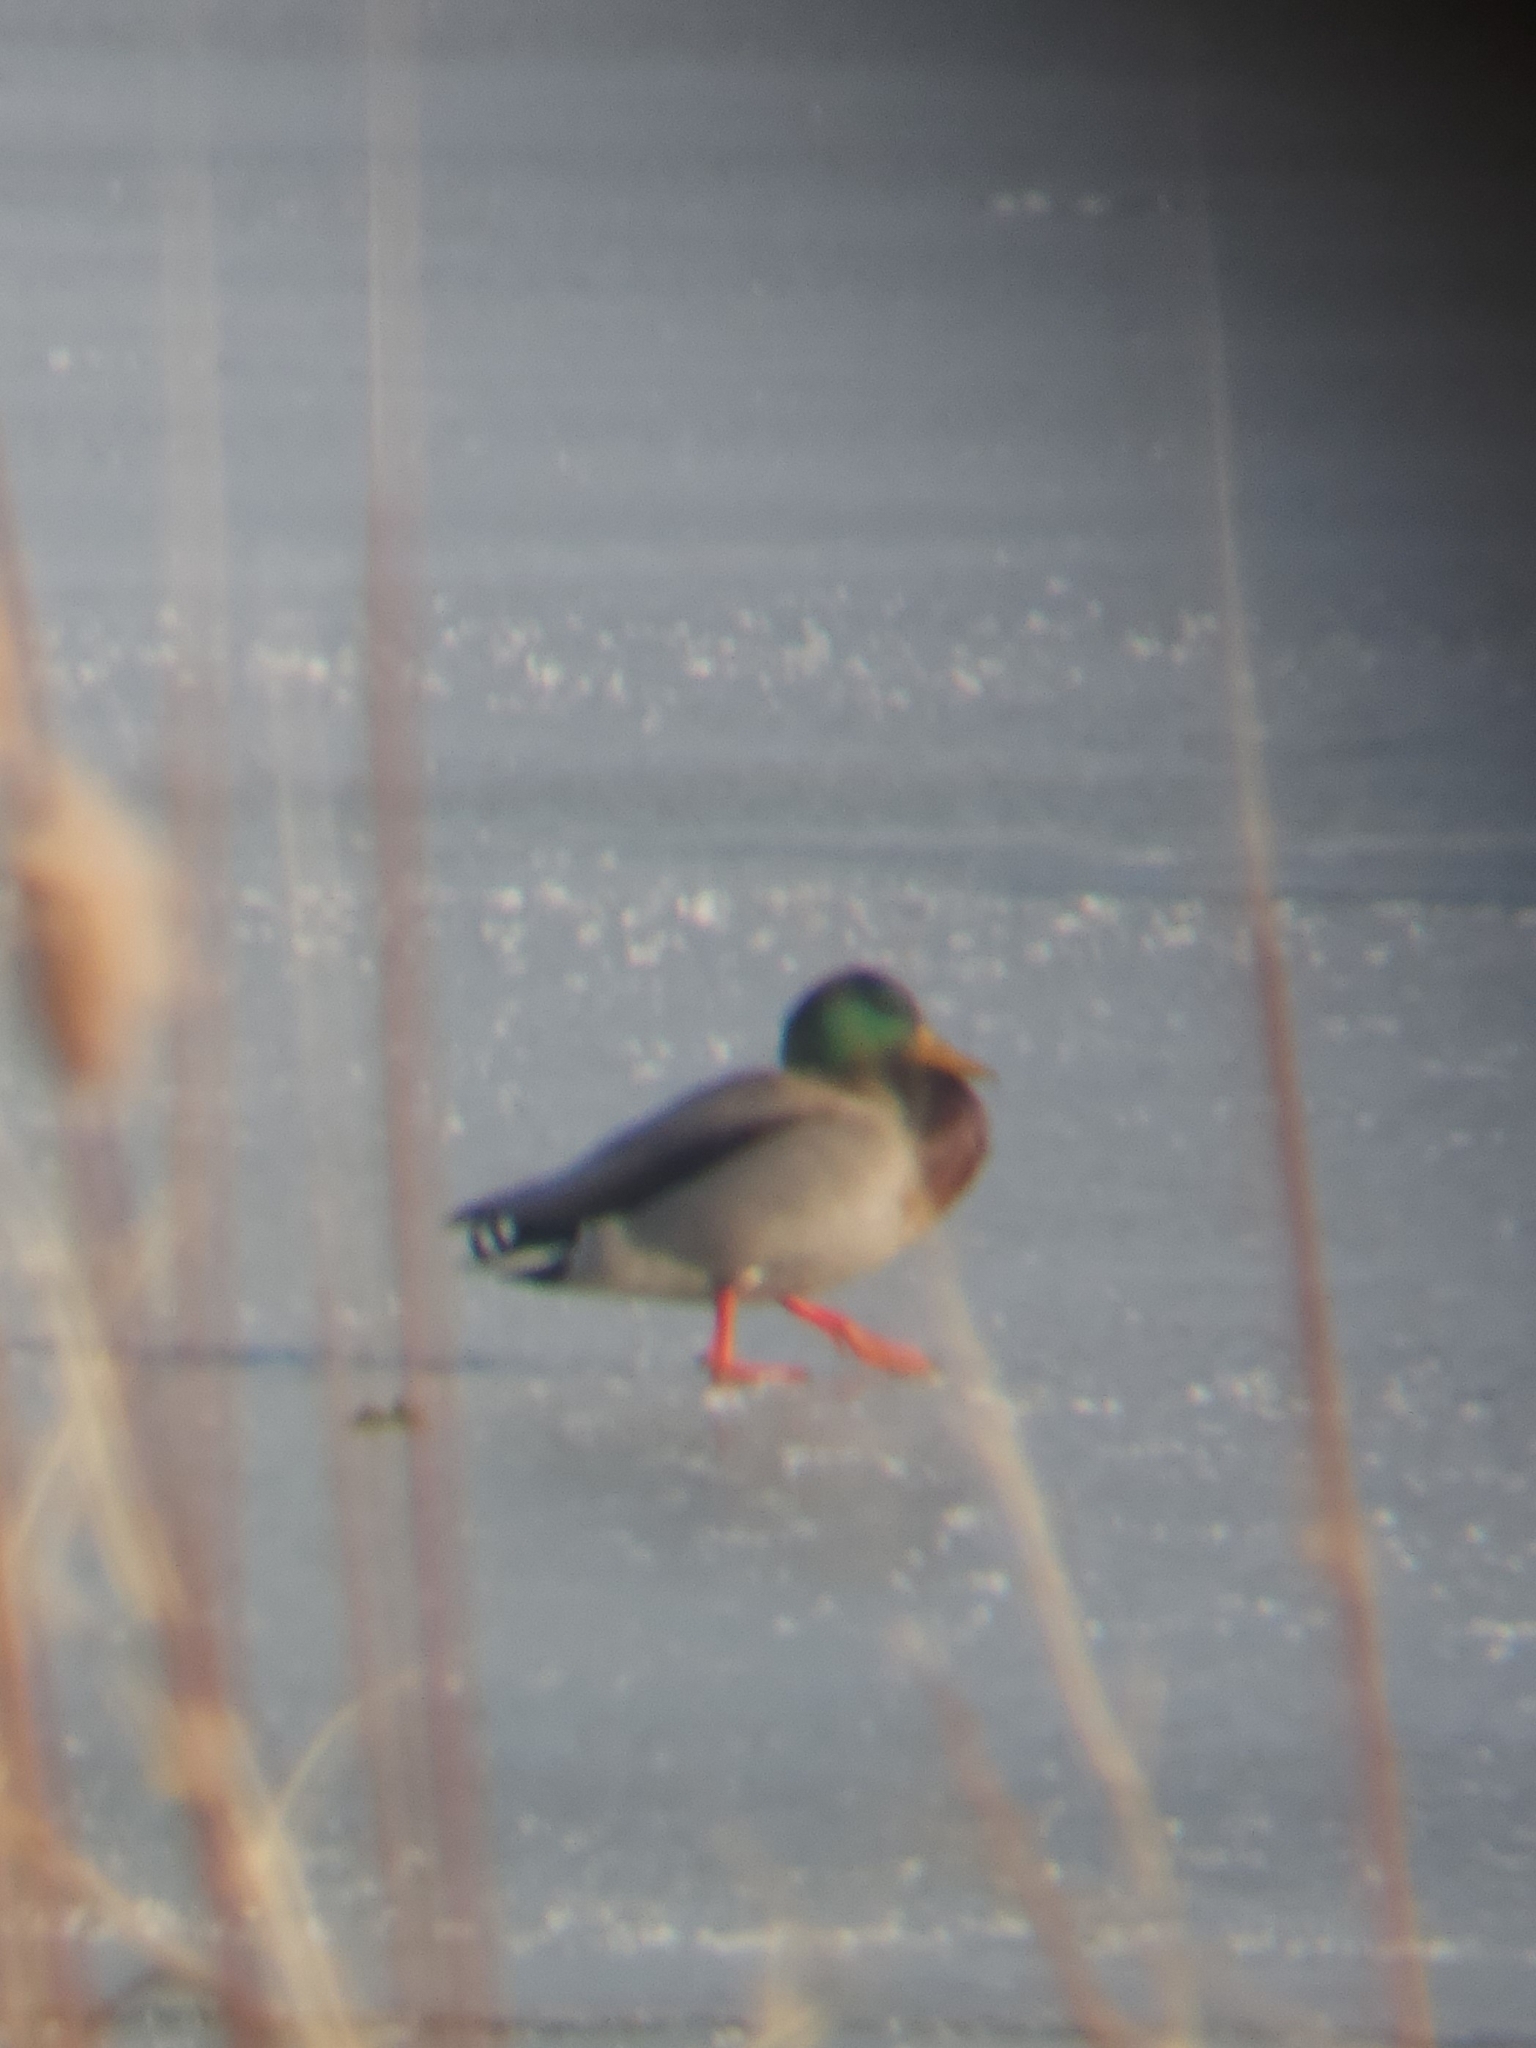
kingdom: Animalia
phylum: Chordata
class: Aves
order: Anseriformes
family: Anatidae
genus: Anas
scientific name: Anas platyrhynchos
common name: Mallard
